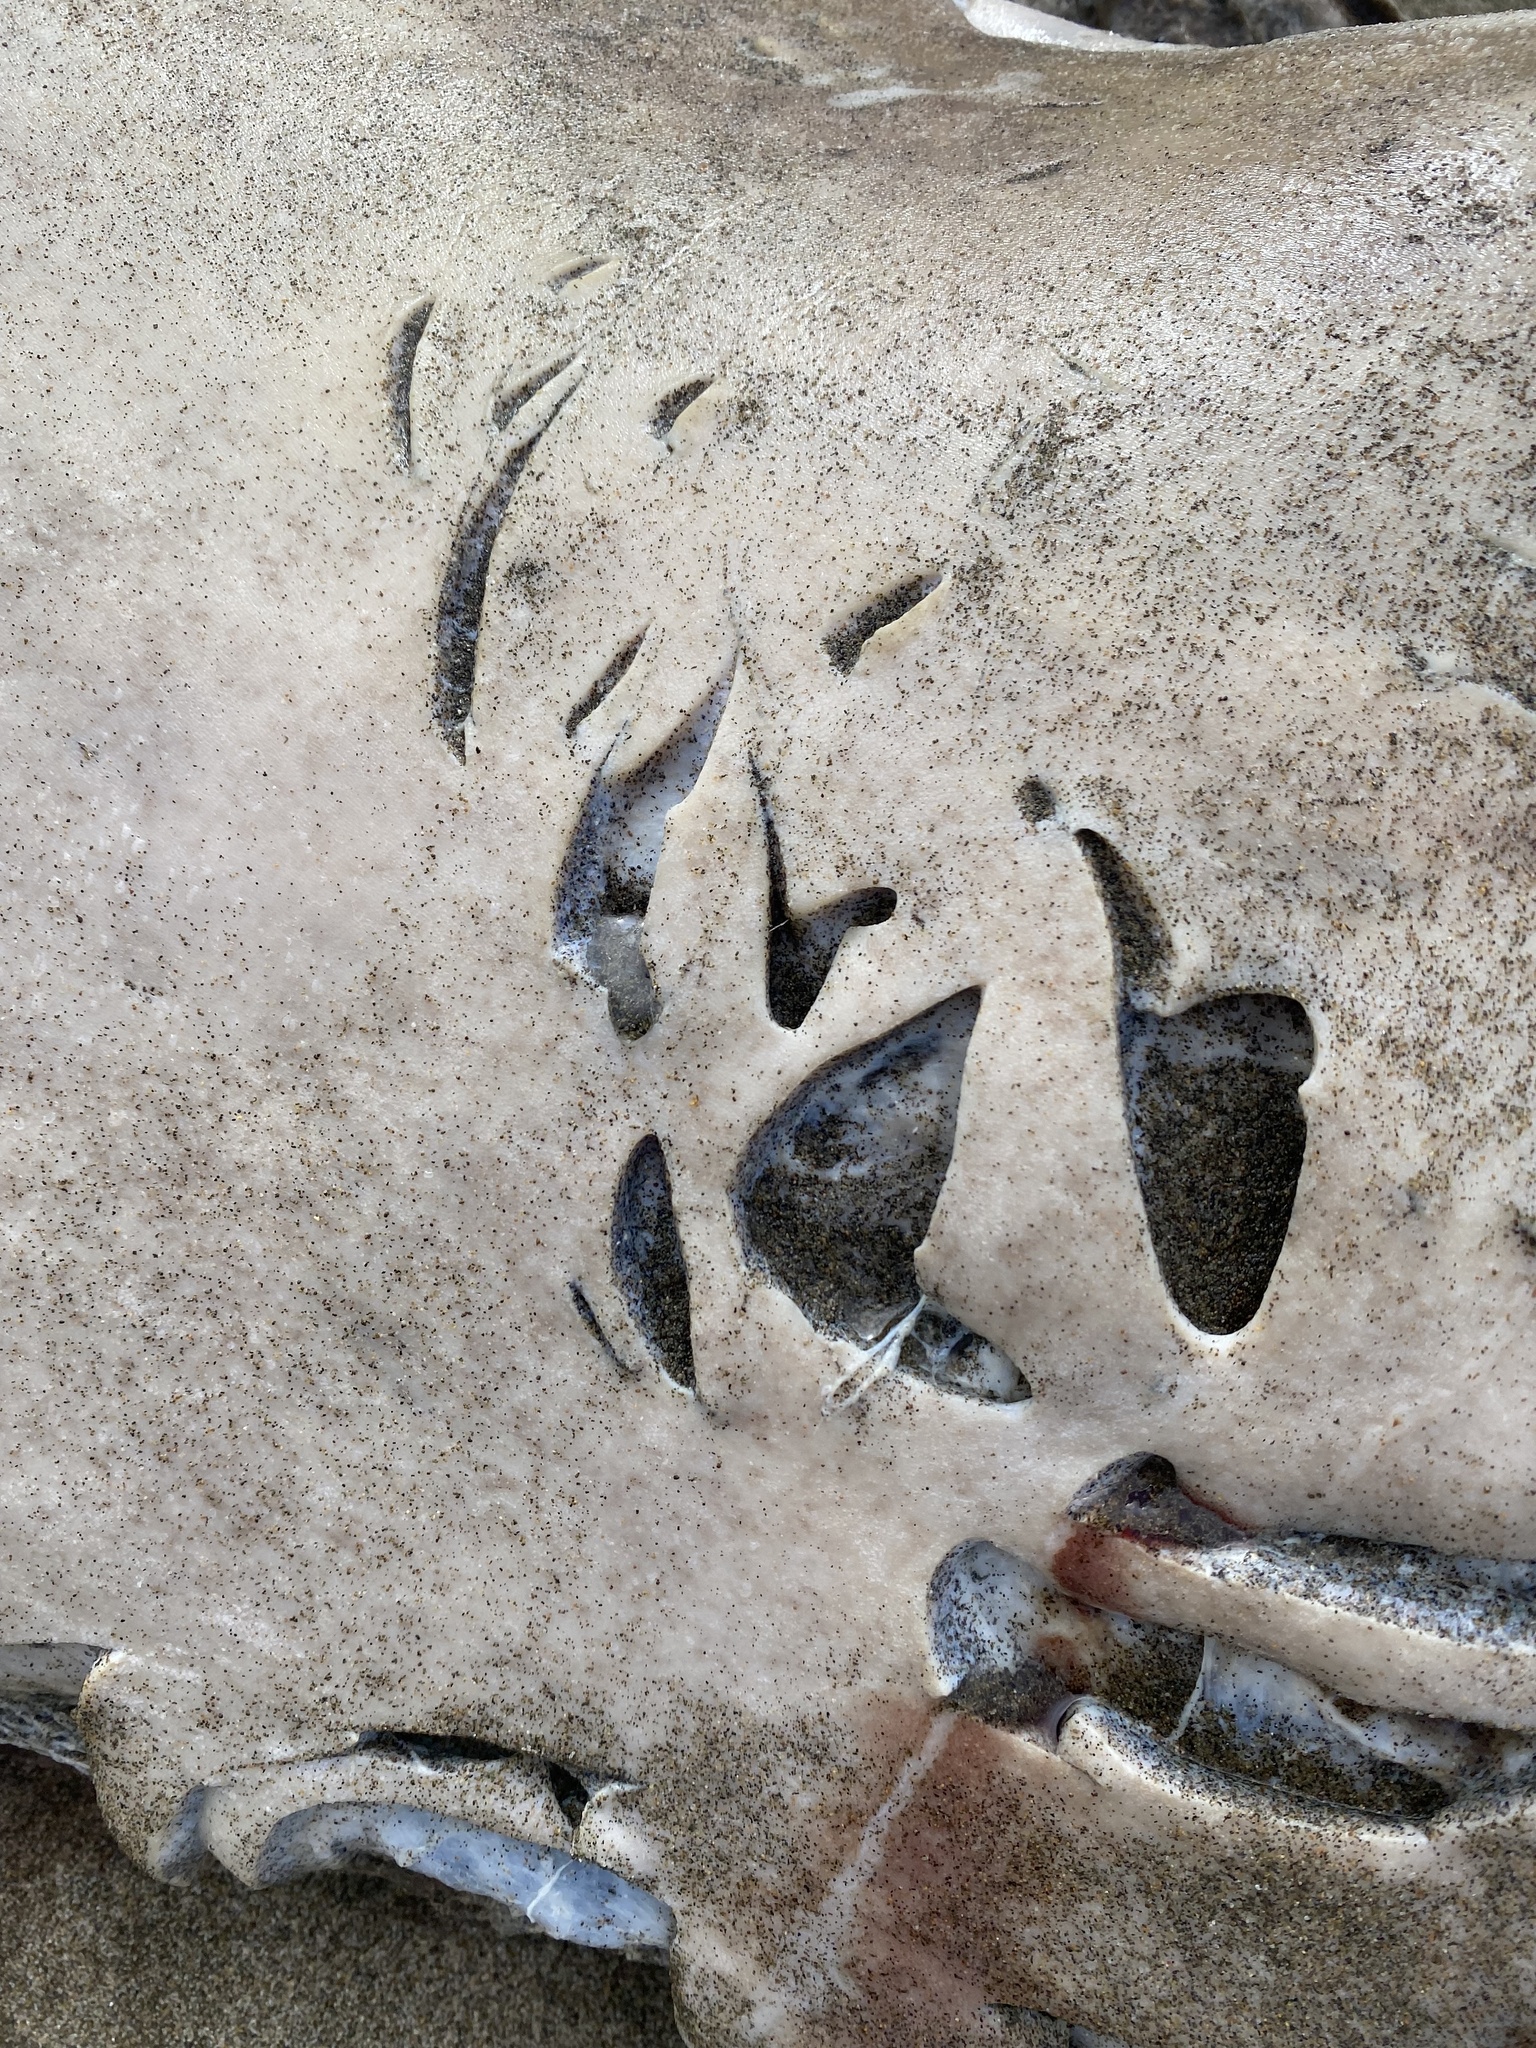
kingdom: Animalia
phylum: Chordata
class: Elasmobranchii
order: Lamniformes
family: Lamnidae
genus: Carcharodon
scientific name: Carcharodon carcharias
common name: Great white shark
